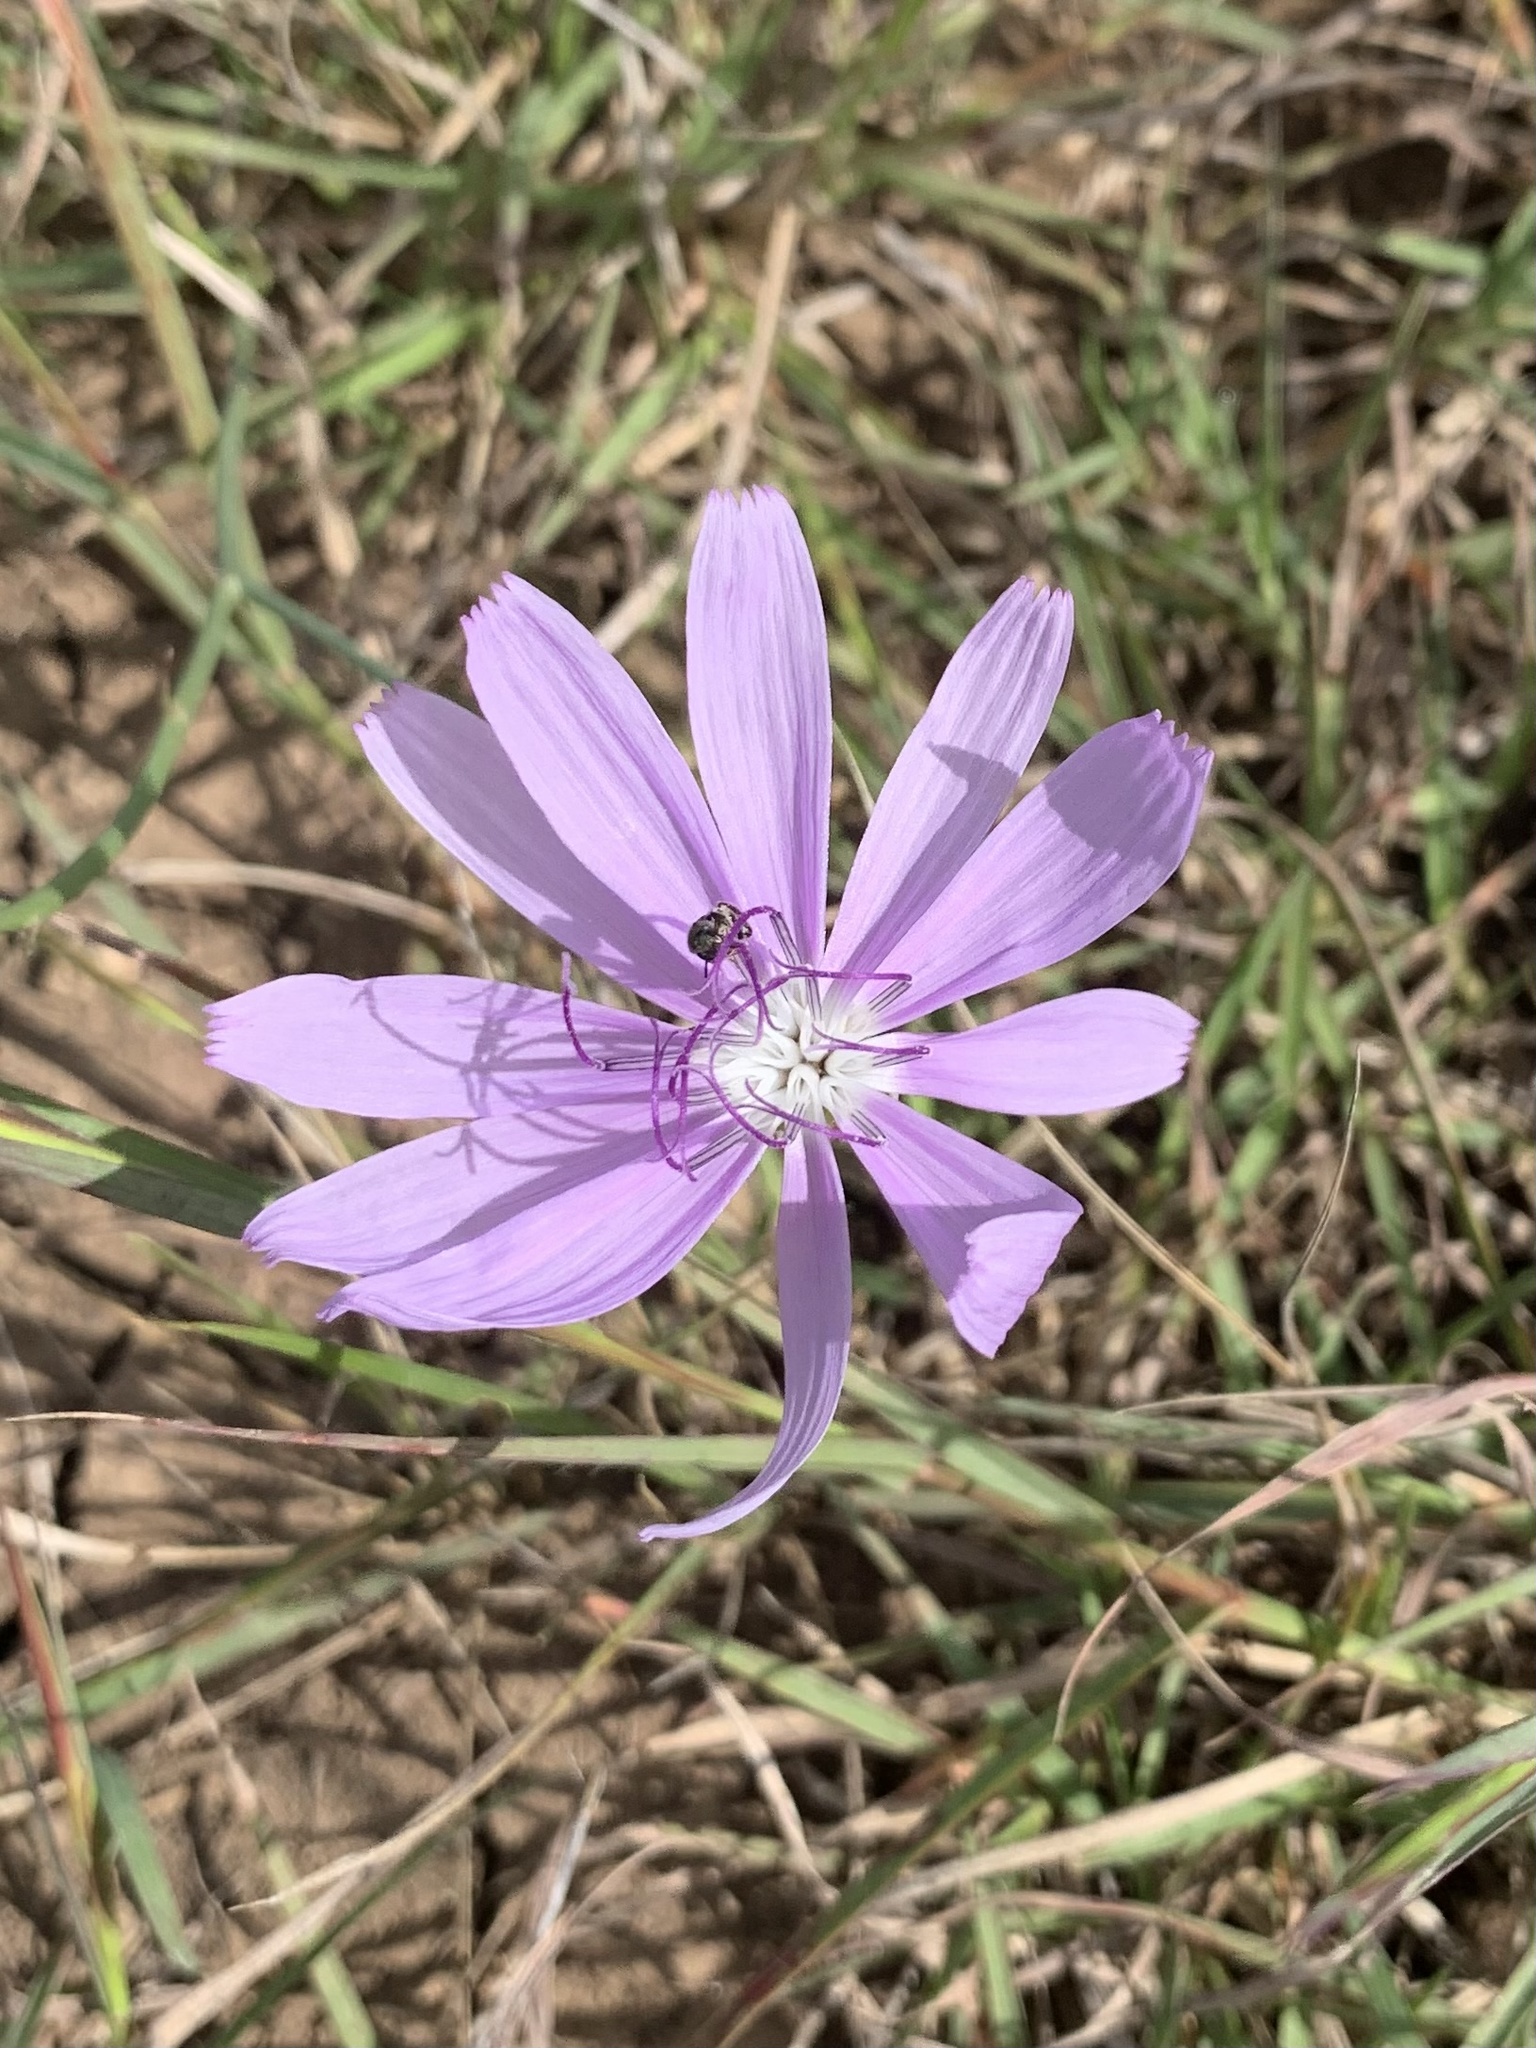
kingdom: Plantae
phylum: Tracheophyta
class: Magnoliopsida
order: Asterales
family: Asteraceae
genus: Lygodesmia
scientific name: Lygodesmia texana
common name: Texas skeleton-plant
